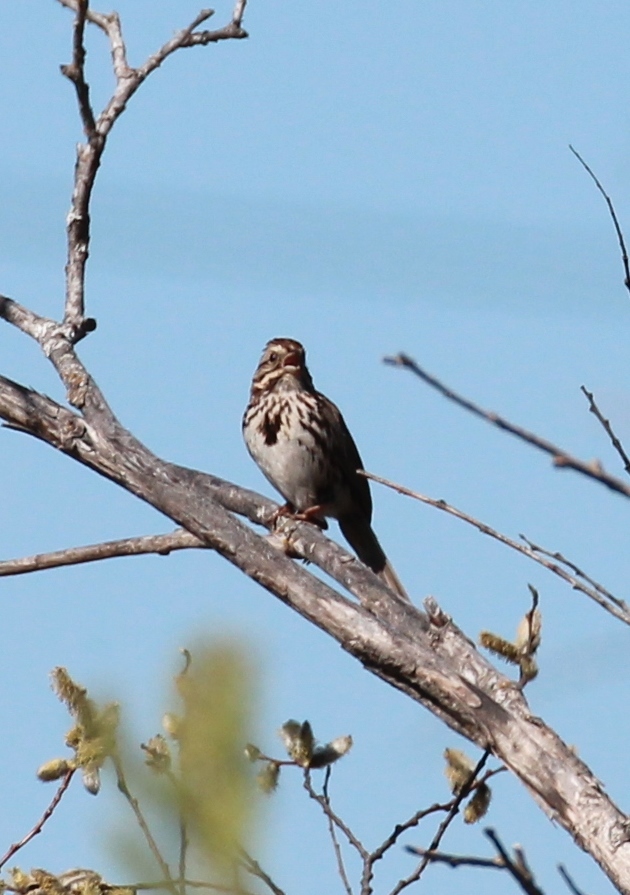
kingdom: Animalia
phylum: Chordata
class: Aves
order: Passeriformes
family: Passerellidae
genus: Melospiza
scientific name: Melospiza melodia
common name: Song sparrow
